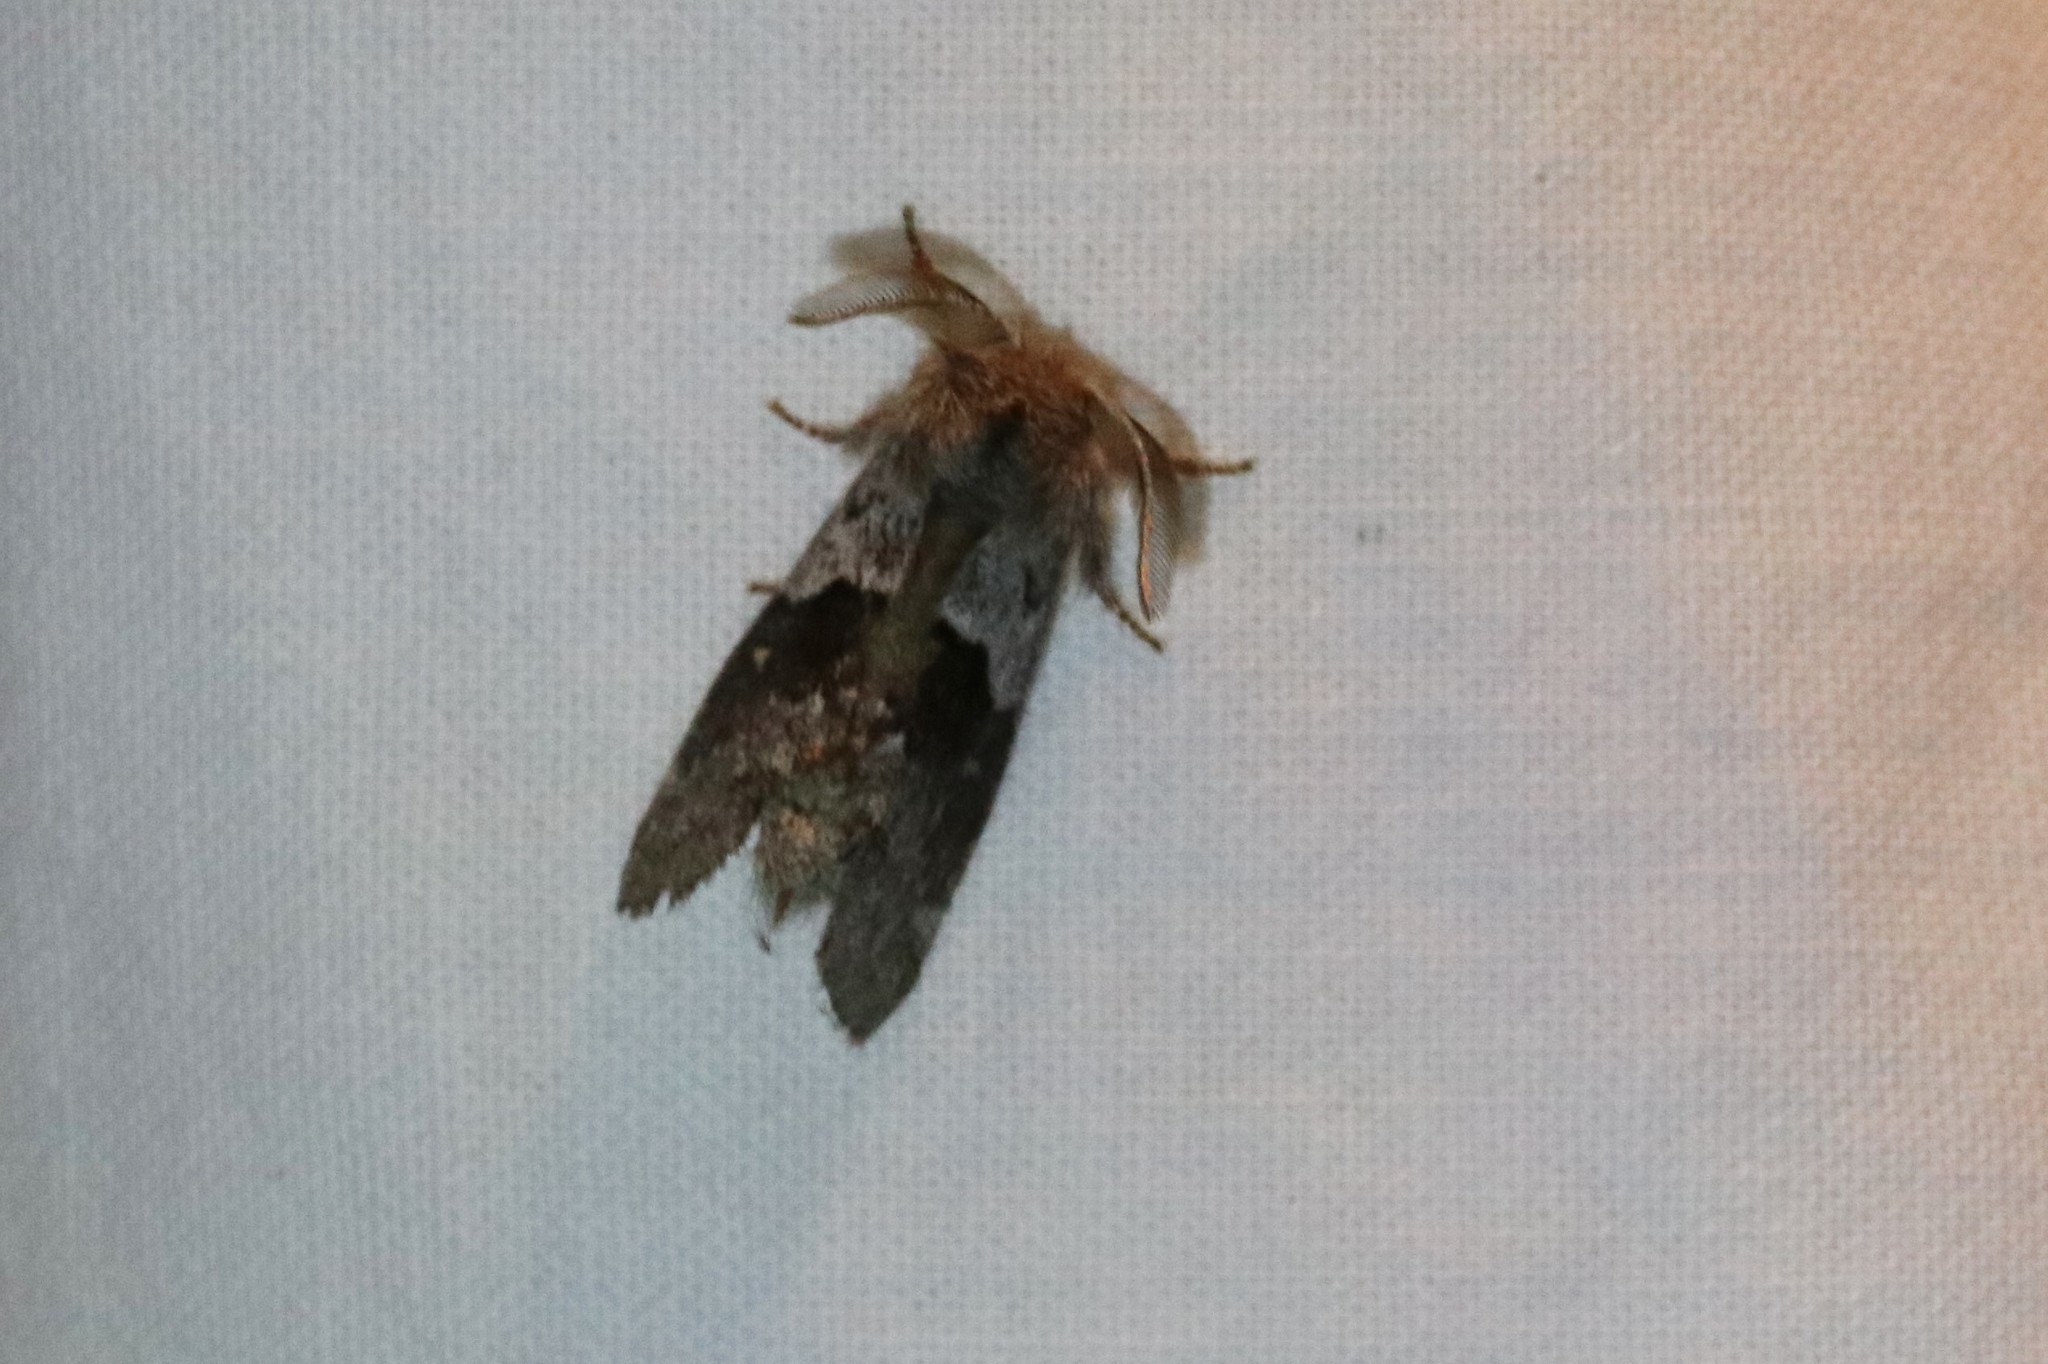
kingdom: Animalia
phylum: Arthropoda
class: Insecta
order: Lepidoptera
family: Notodontidae
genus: Gluphisia
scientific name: Gluphisia avimacula
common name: Four-spotted gluphisia moth
